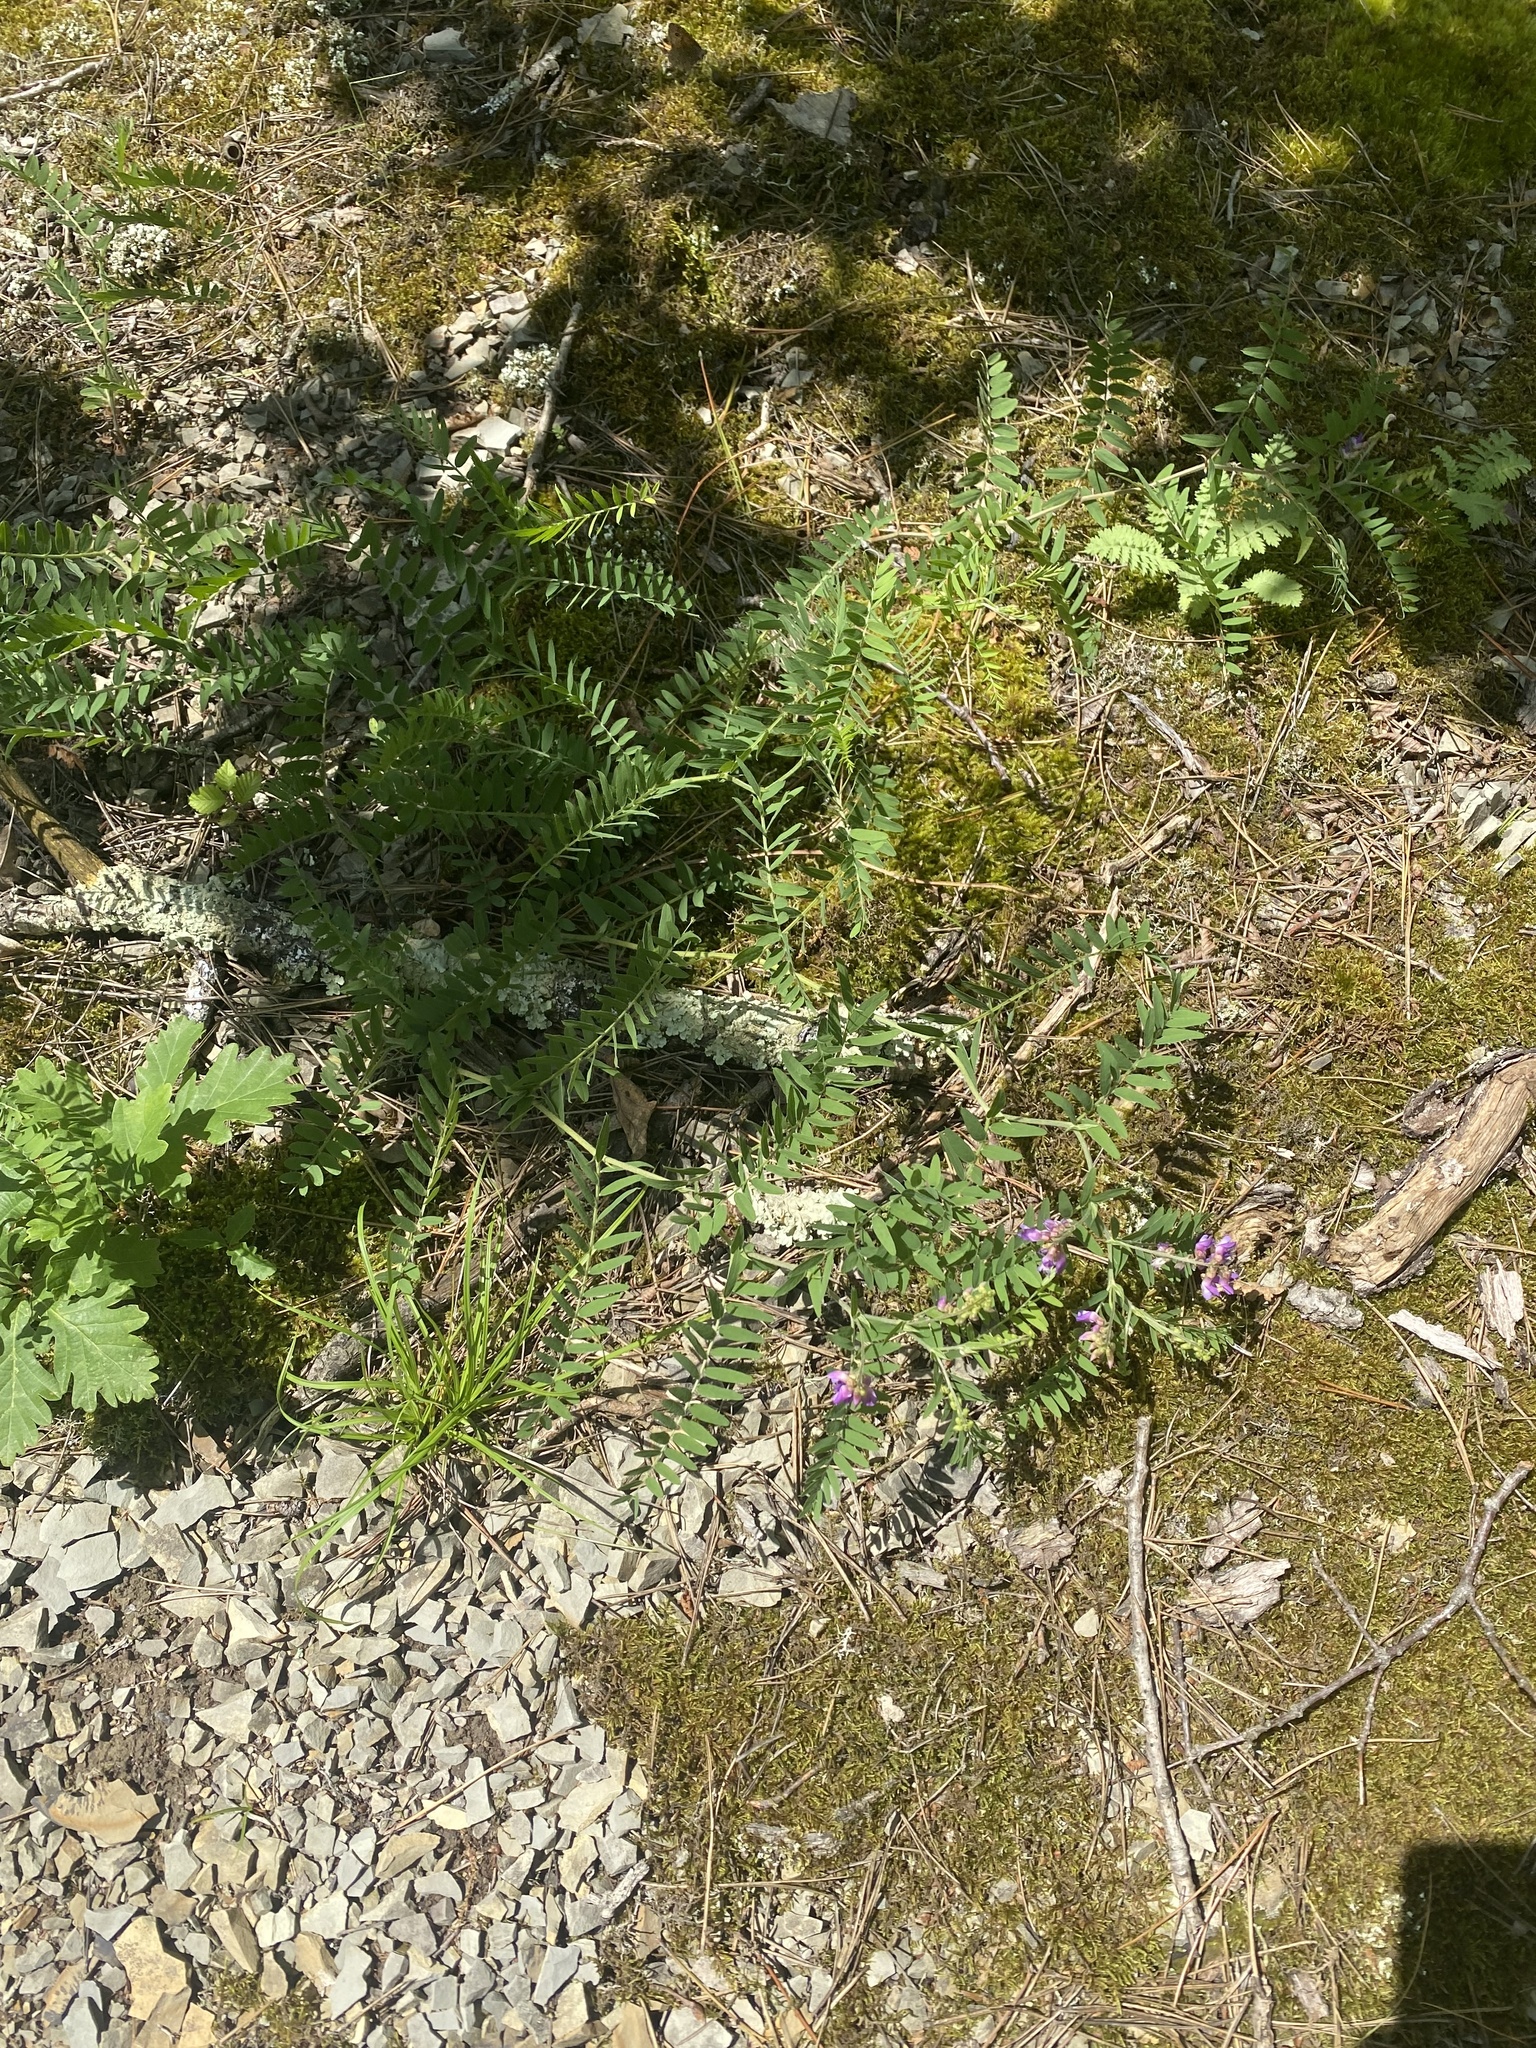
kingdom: Plantae
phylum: Tracheophyta
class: Magnoliopsida
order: Fabales
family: Fabaceae
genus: Vicia
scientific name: Vicia cassubica
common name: Danzig vetch
